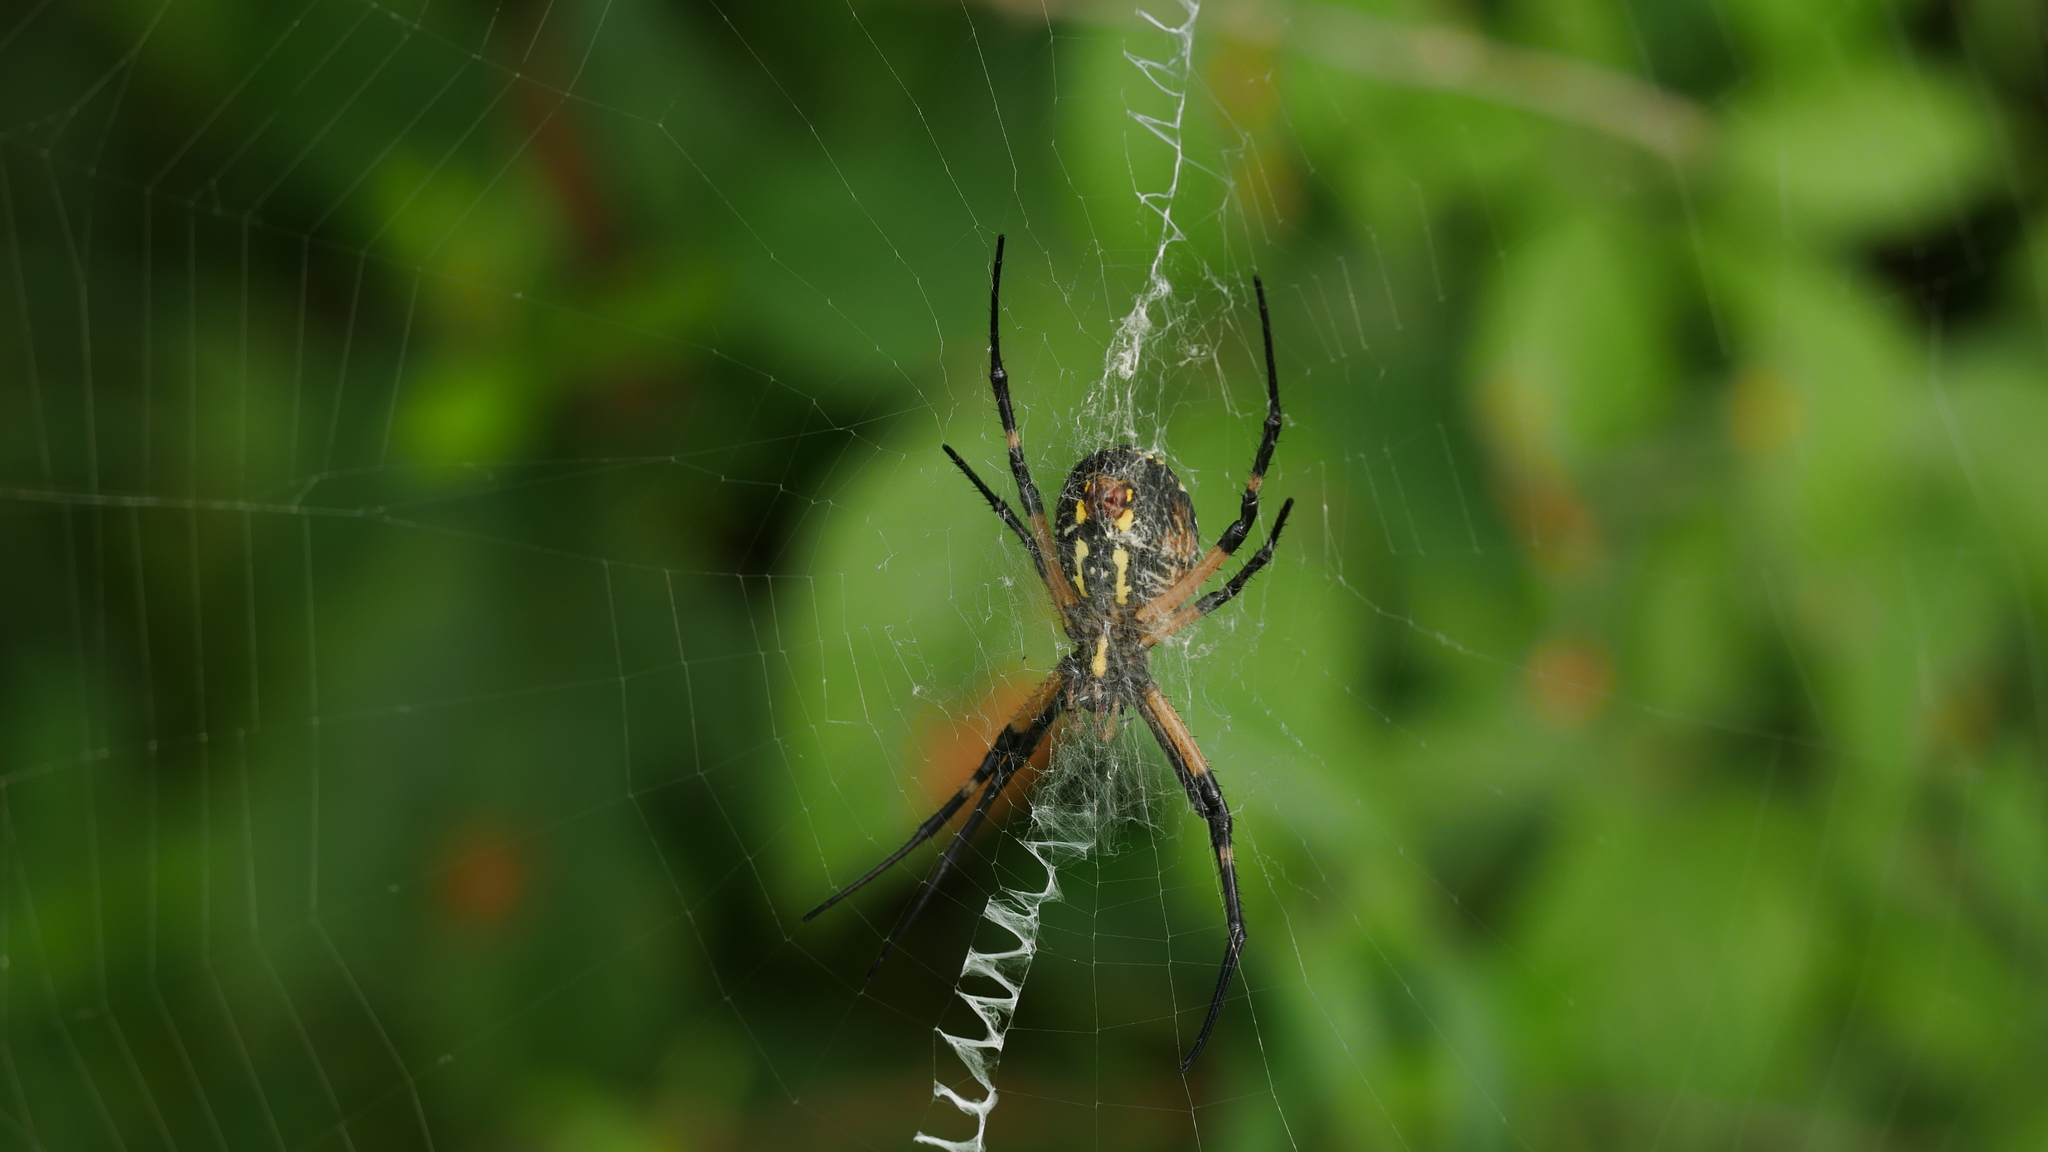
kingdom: Animalia
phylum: Arthropoda
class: Arachnida
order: Araneae
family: Araneidae
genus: Argiope
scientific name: Argiope aurantia
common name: Orb weavers
